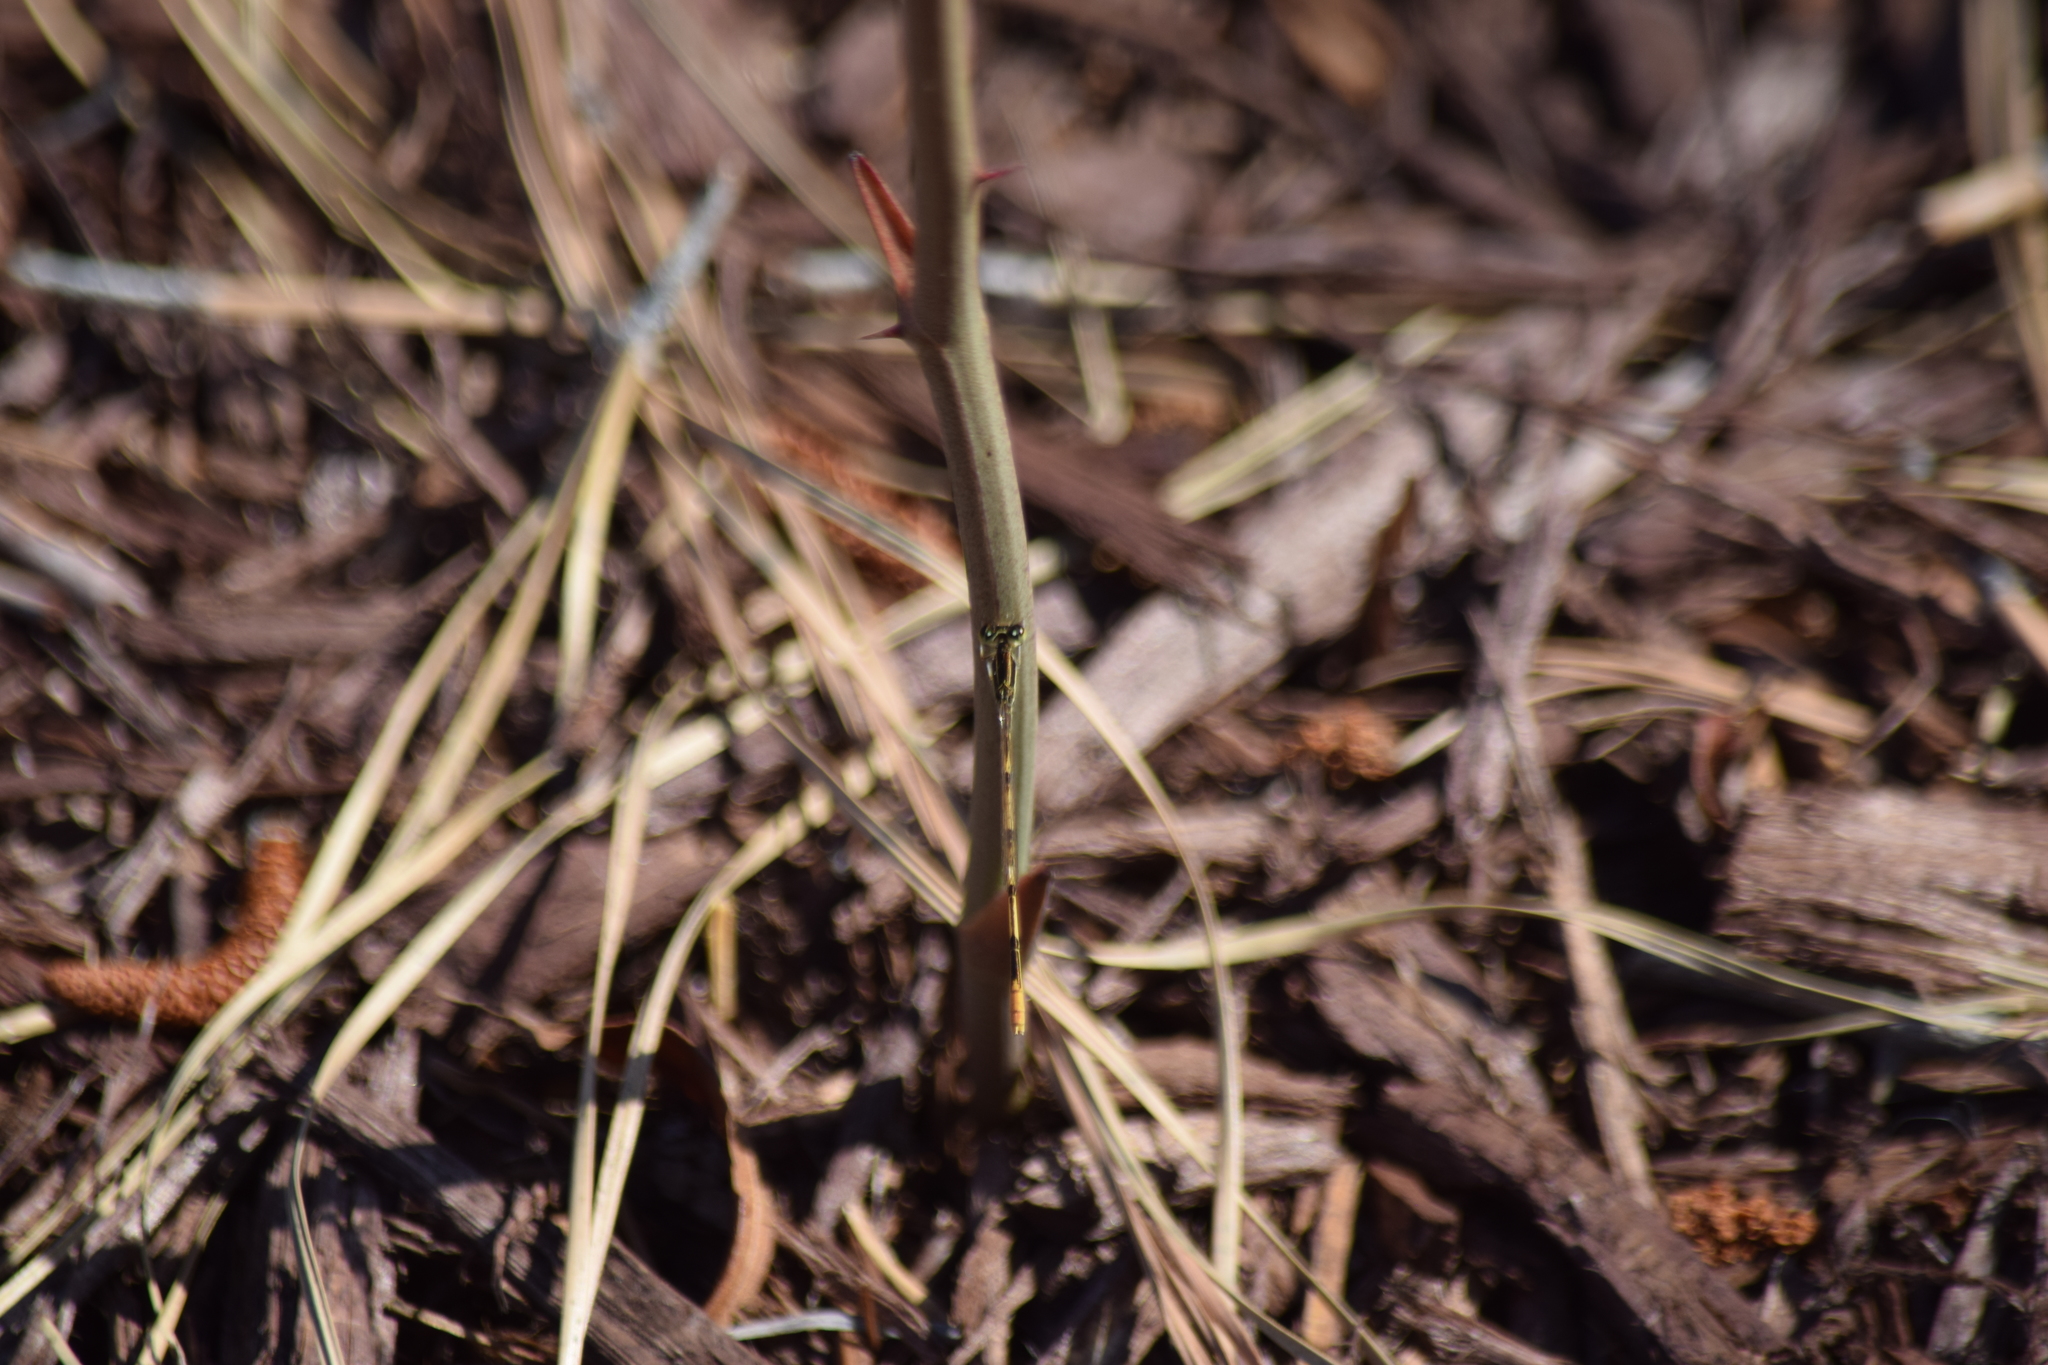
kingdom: Animalia
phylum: Arthropoda
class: Insecta
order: Odonata
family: Coenagrionidae
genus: Ischnura
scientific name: Ischnura hastata
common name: Citrine forktail
